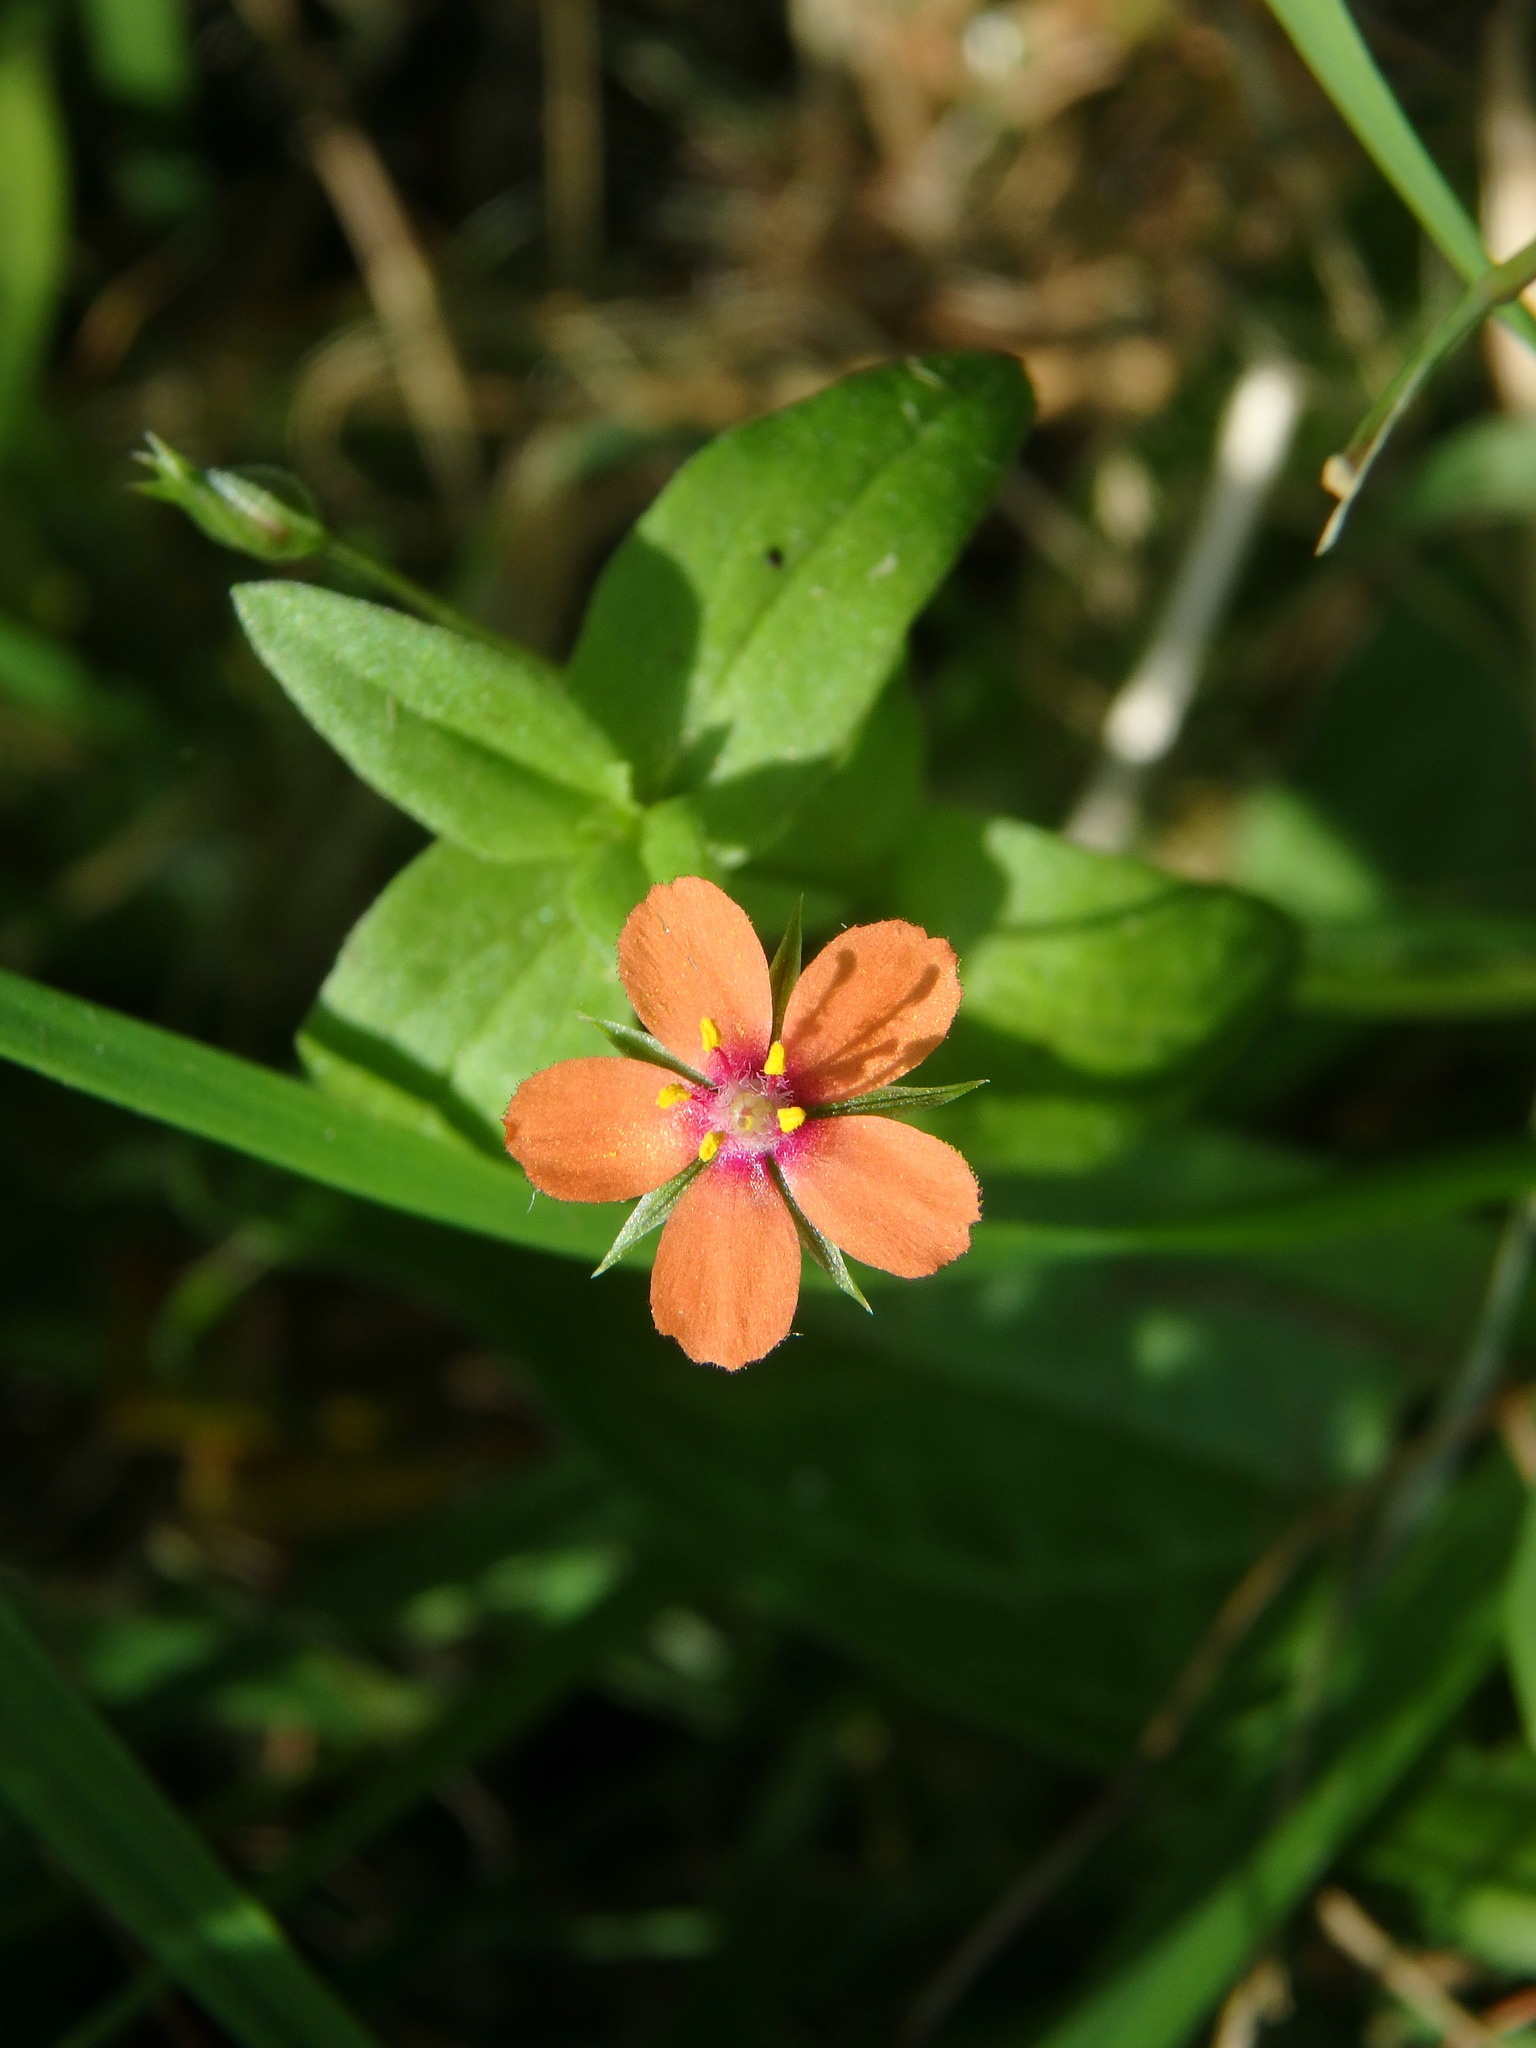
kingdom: Plantae
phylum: Tracheophyta
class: Magnoliopsida
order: Ericales
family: Primulaceae
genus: Lysimachia
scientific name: Lysimachia arvensis
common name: Scarlet pimpernel
